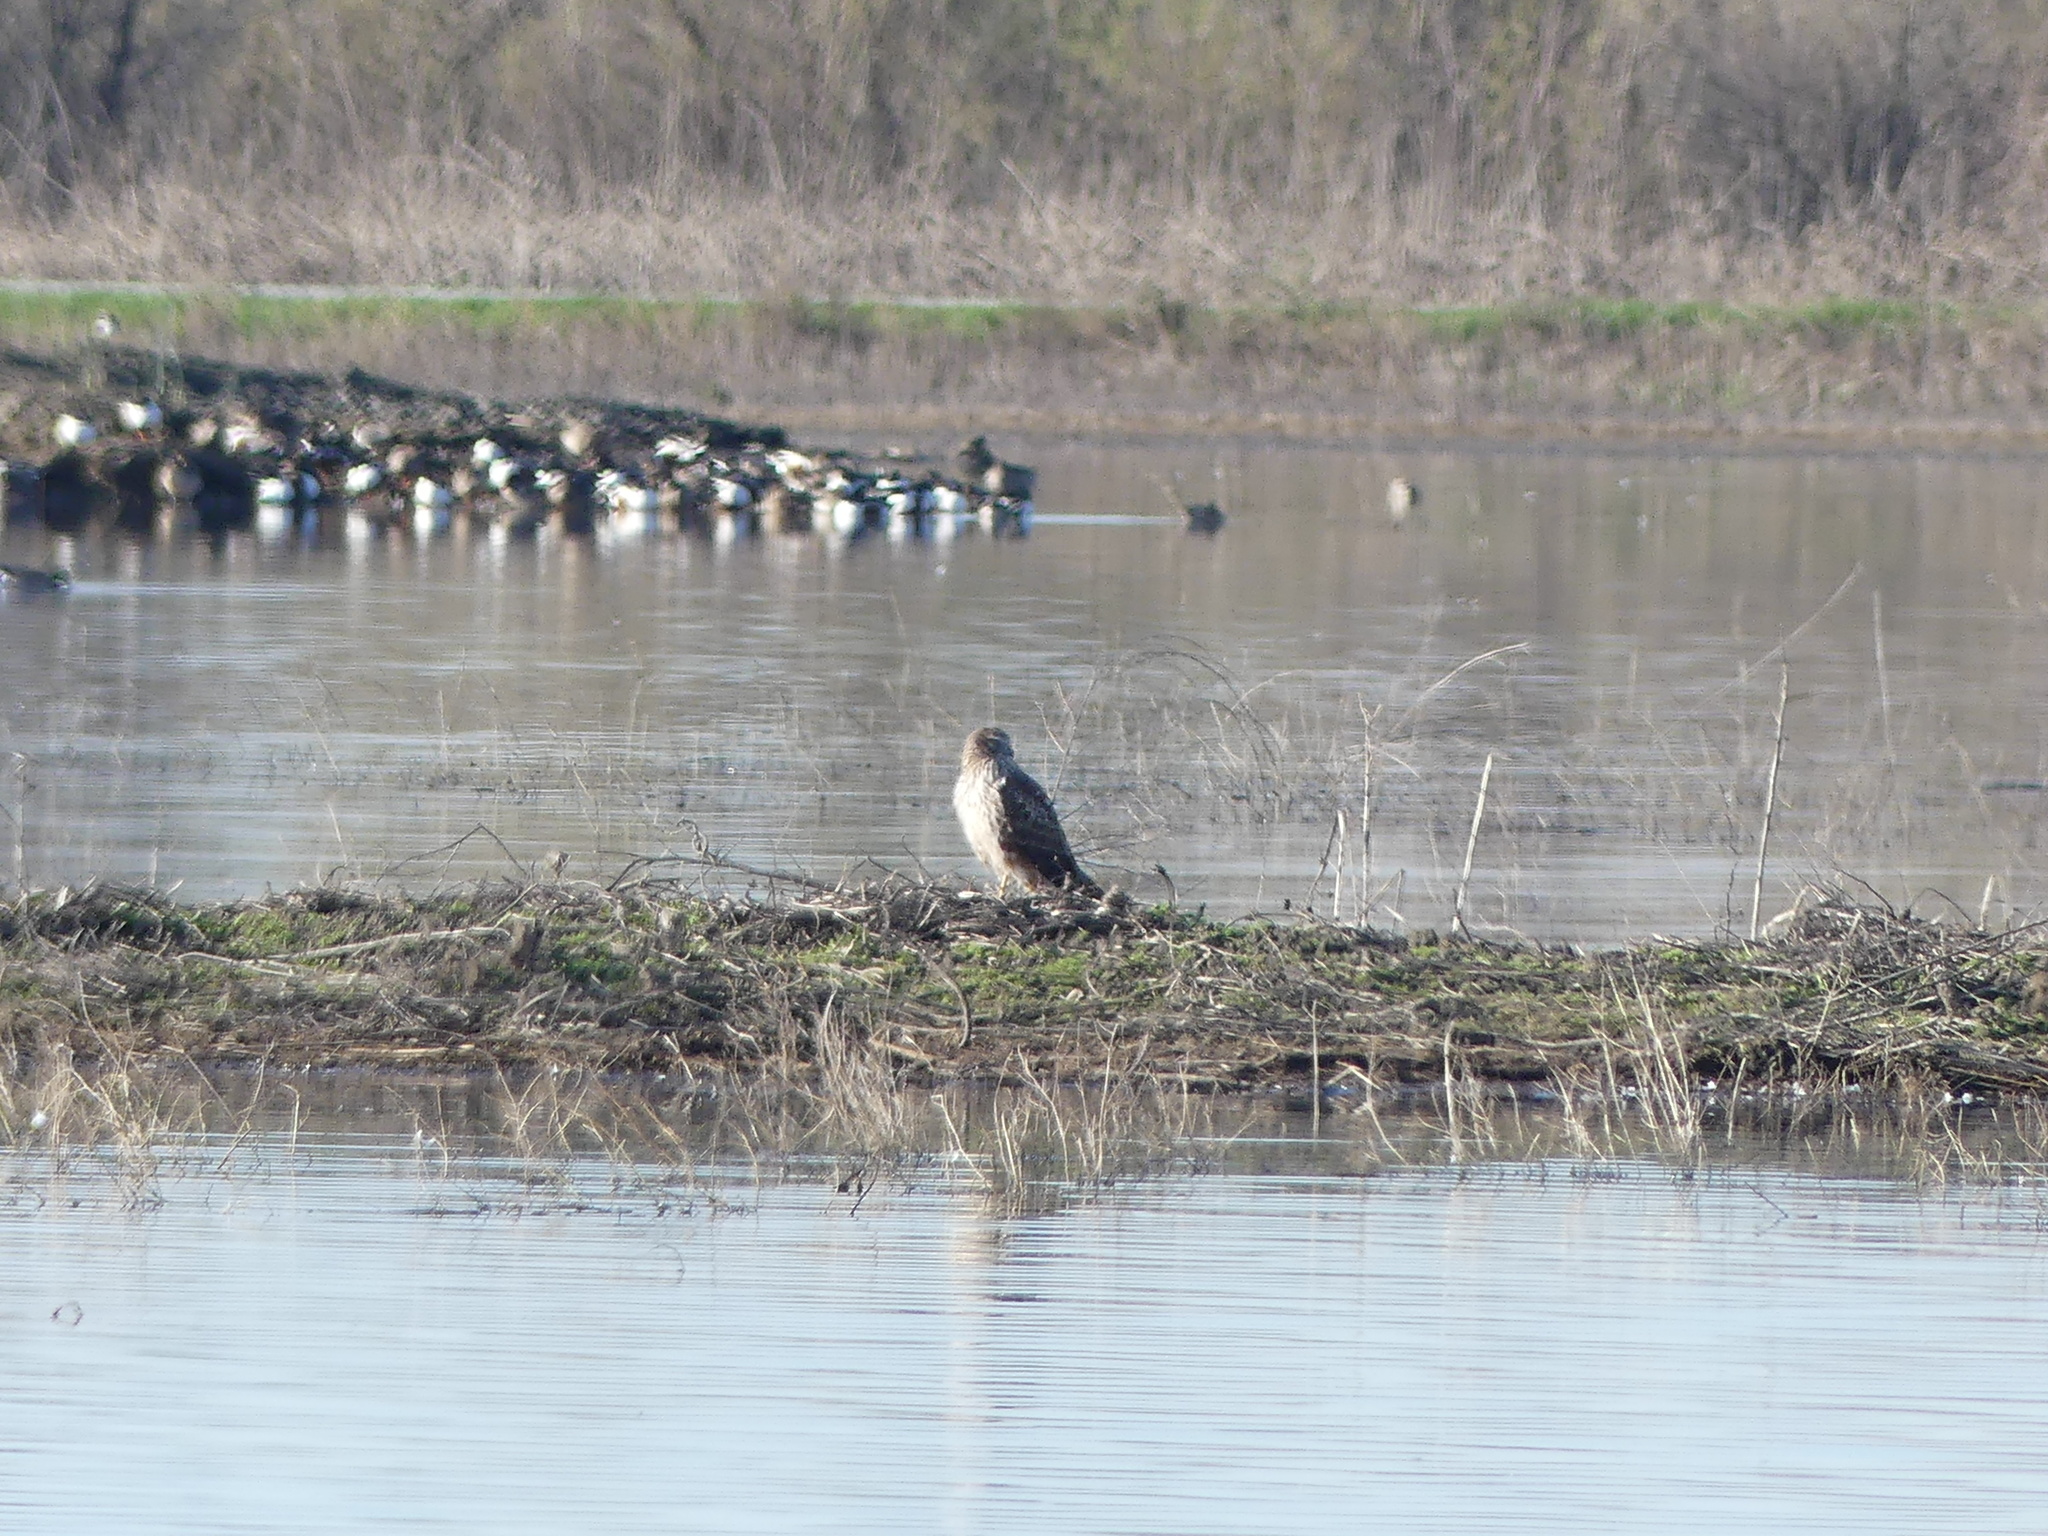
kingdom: Animalia
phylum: Chordata
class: Aves
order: Accipitriformes
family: Accipitridae
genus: Circus
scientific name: Circus cyaneus
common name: Hen harrier
